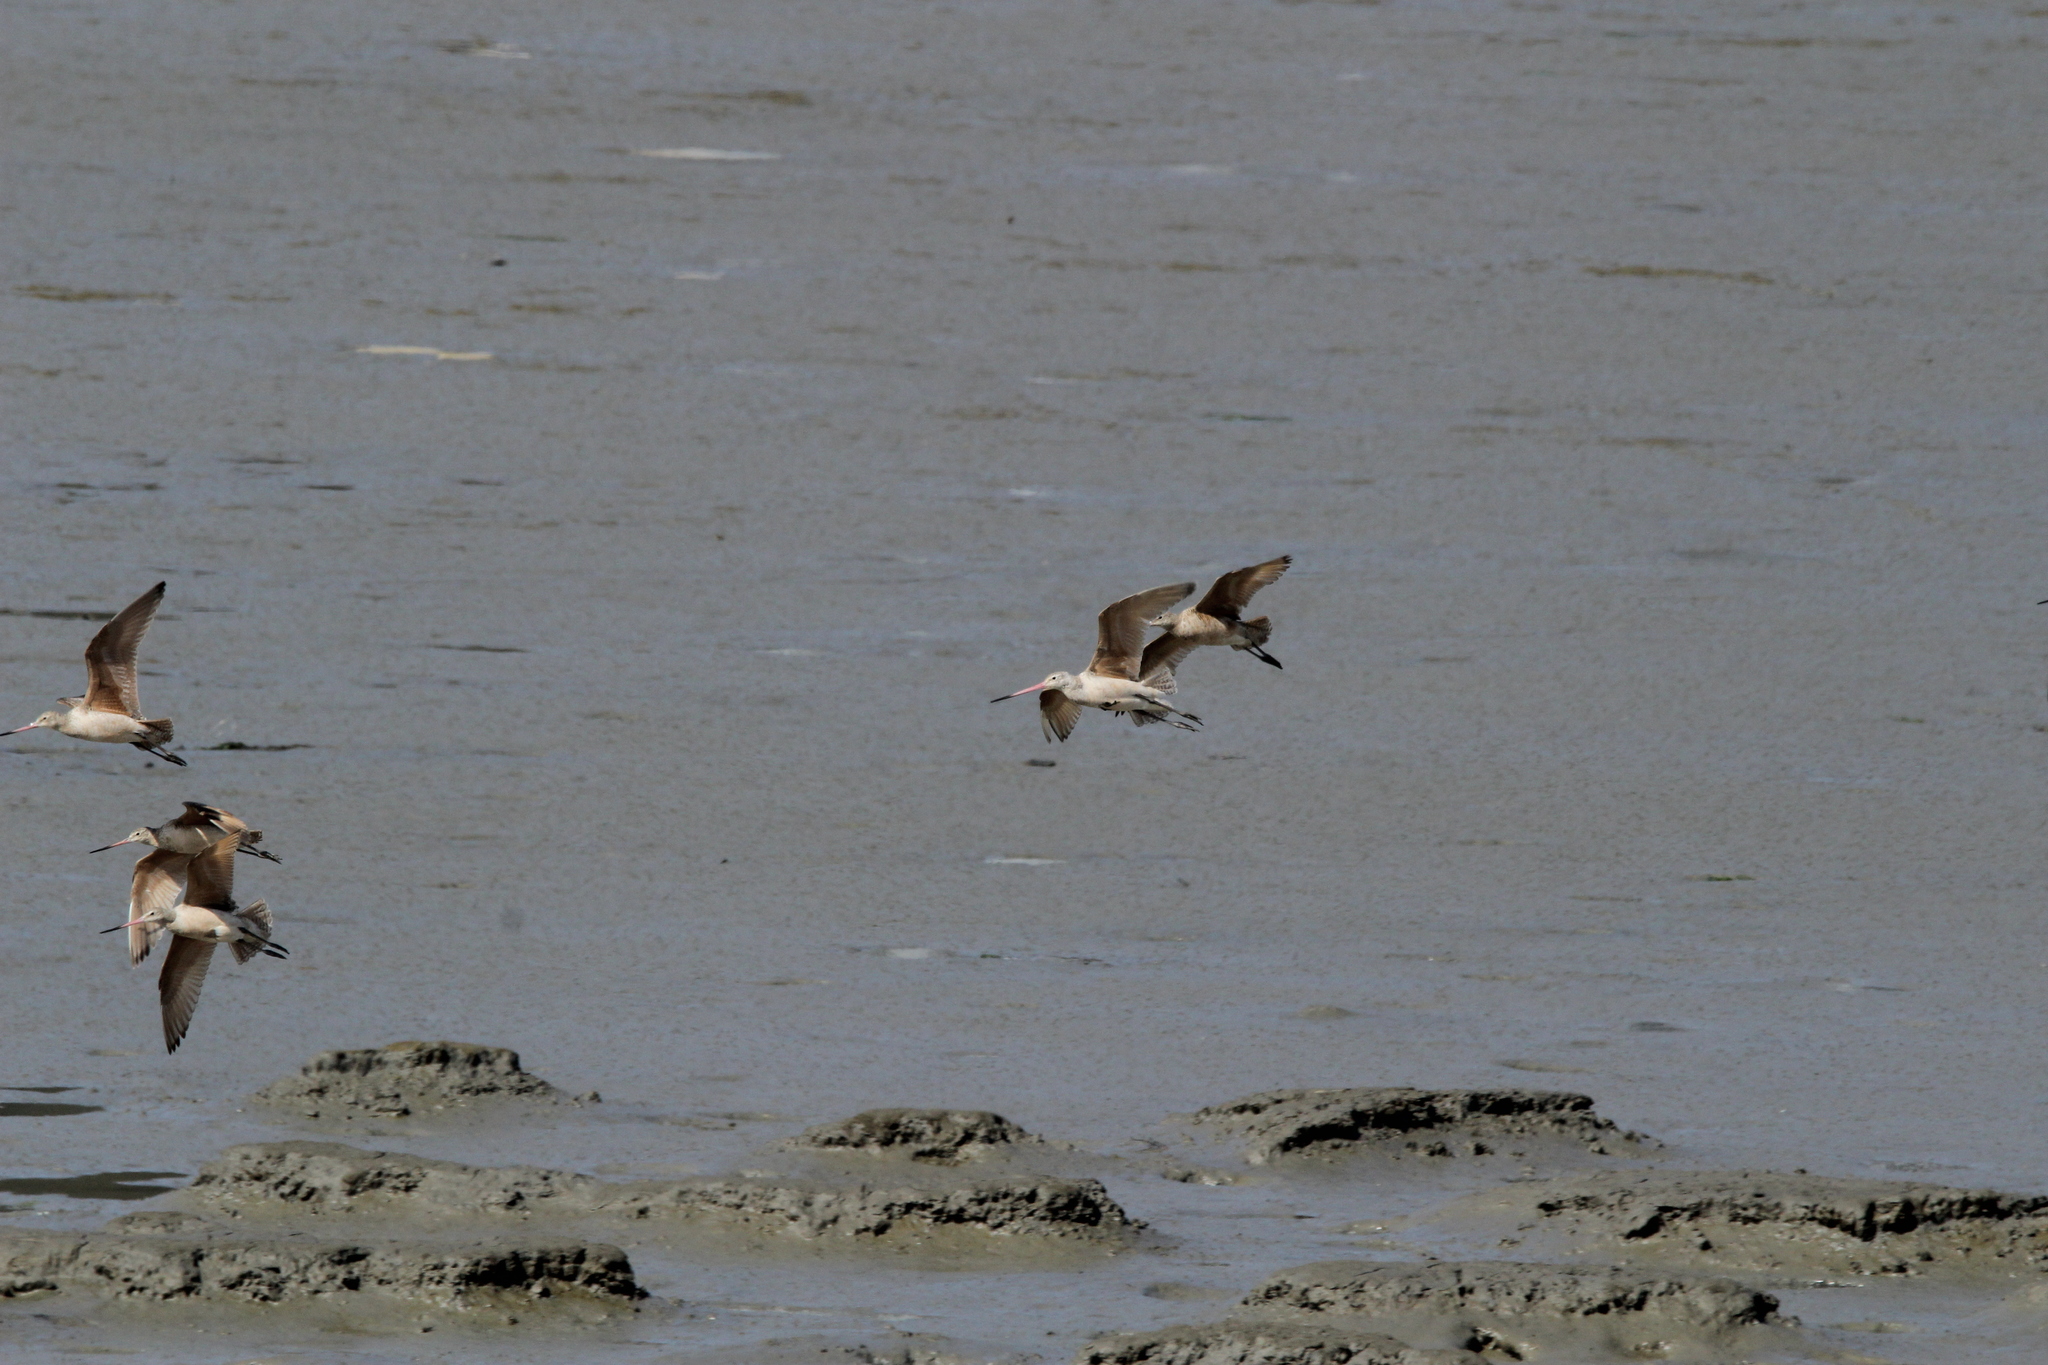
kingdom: Animalia
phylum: Chordata
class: Aves
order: Charadriiformes
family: Scolopacidae
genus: Limosa
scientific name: Limosa fedoa
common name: Marbled godwit
